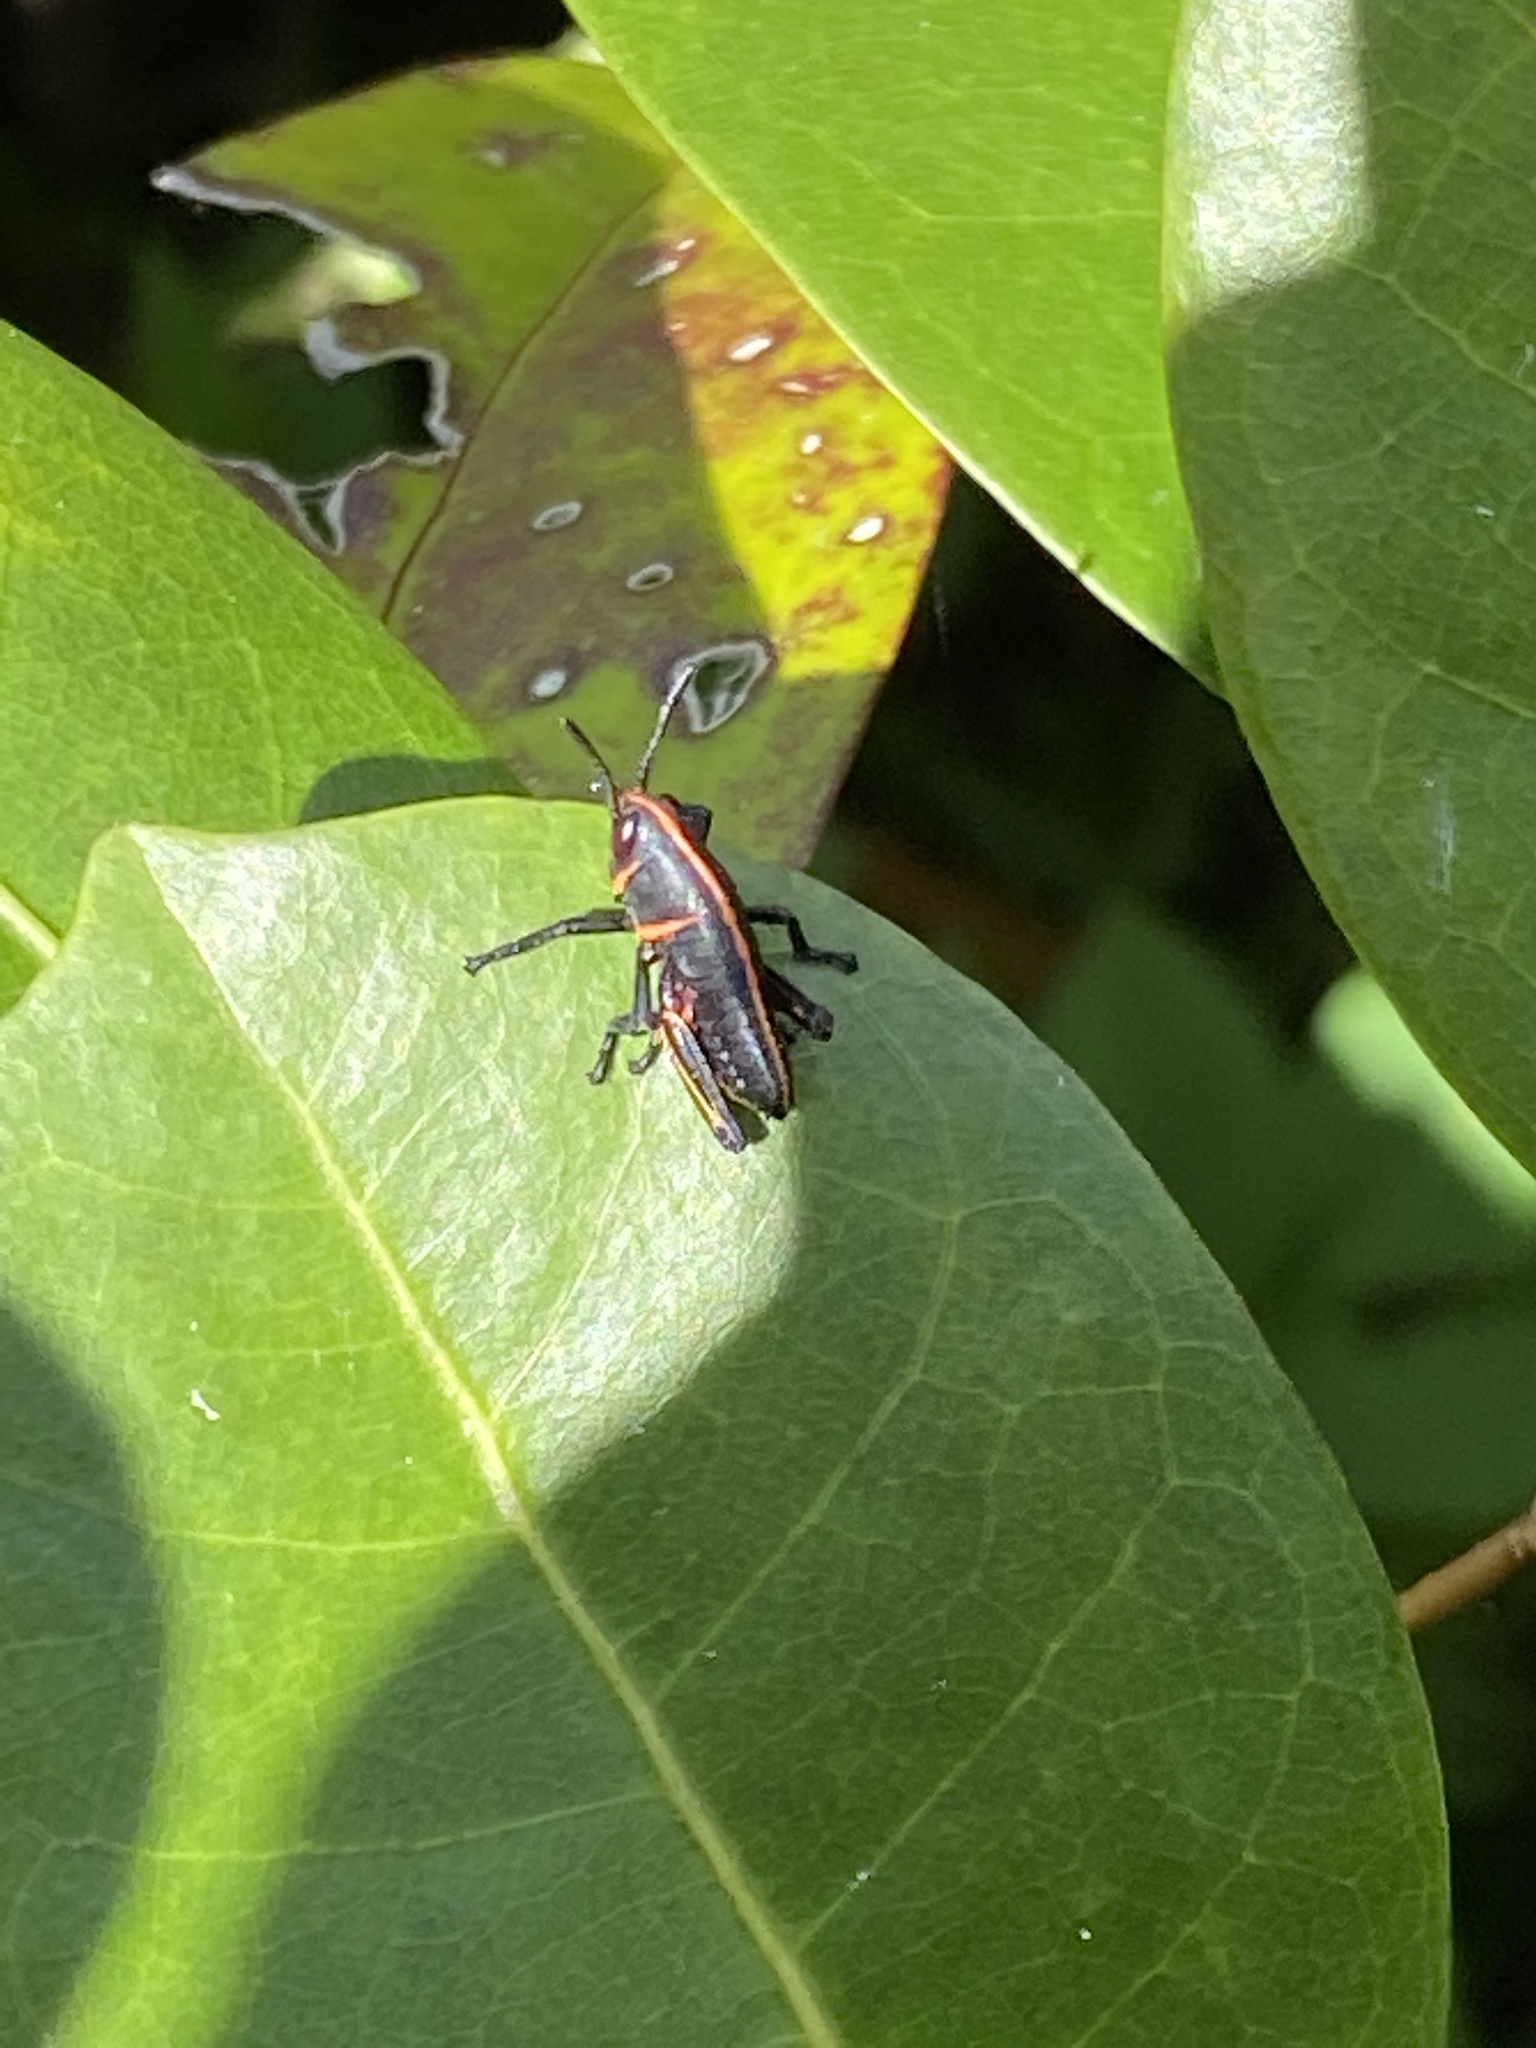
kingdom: Animalia
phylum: Arthropoda
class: Insecta
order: Orthoptera
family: Romaleidae
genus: Romalea
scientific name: Romalea microptera
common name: Eastern lubber grasshopper
